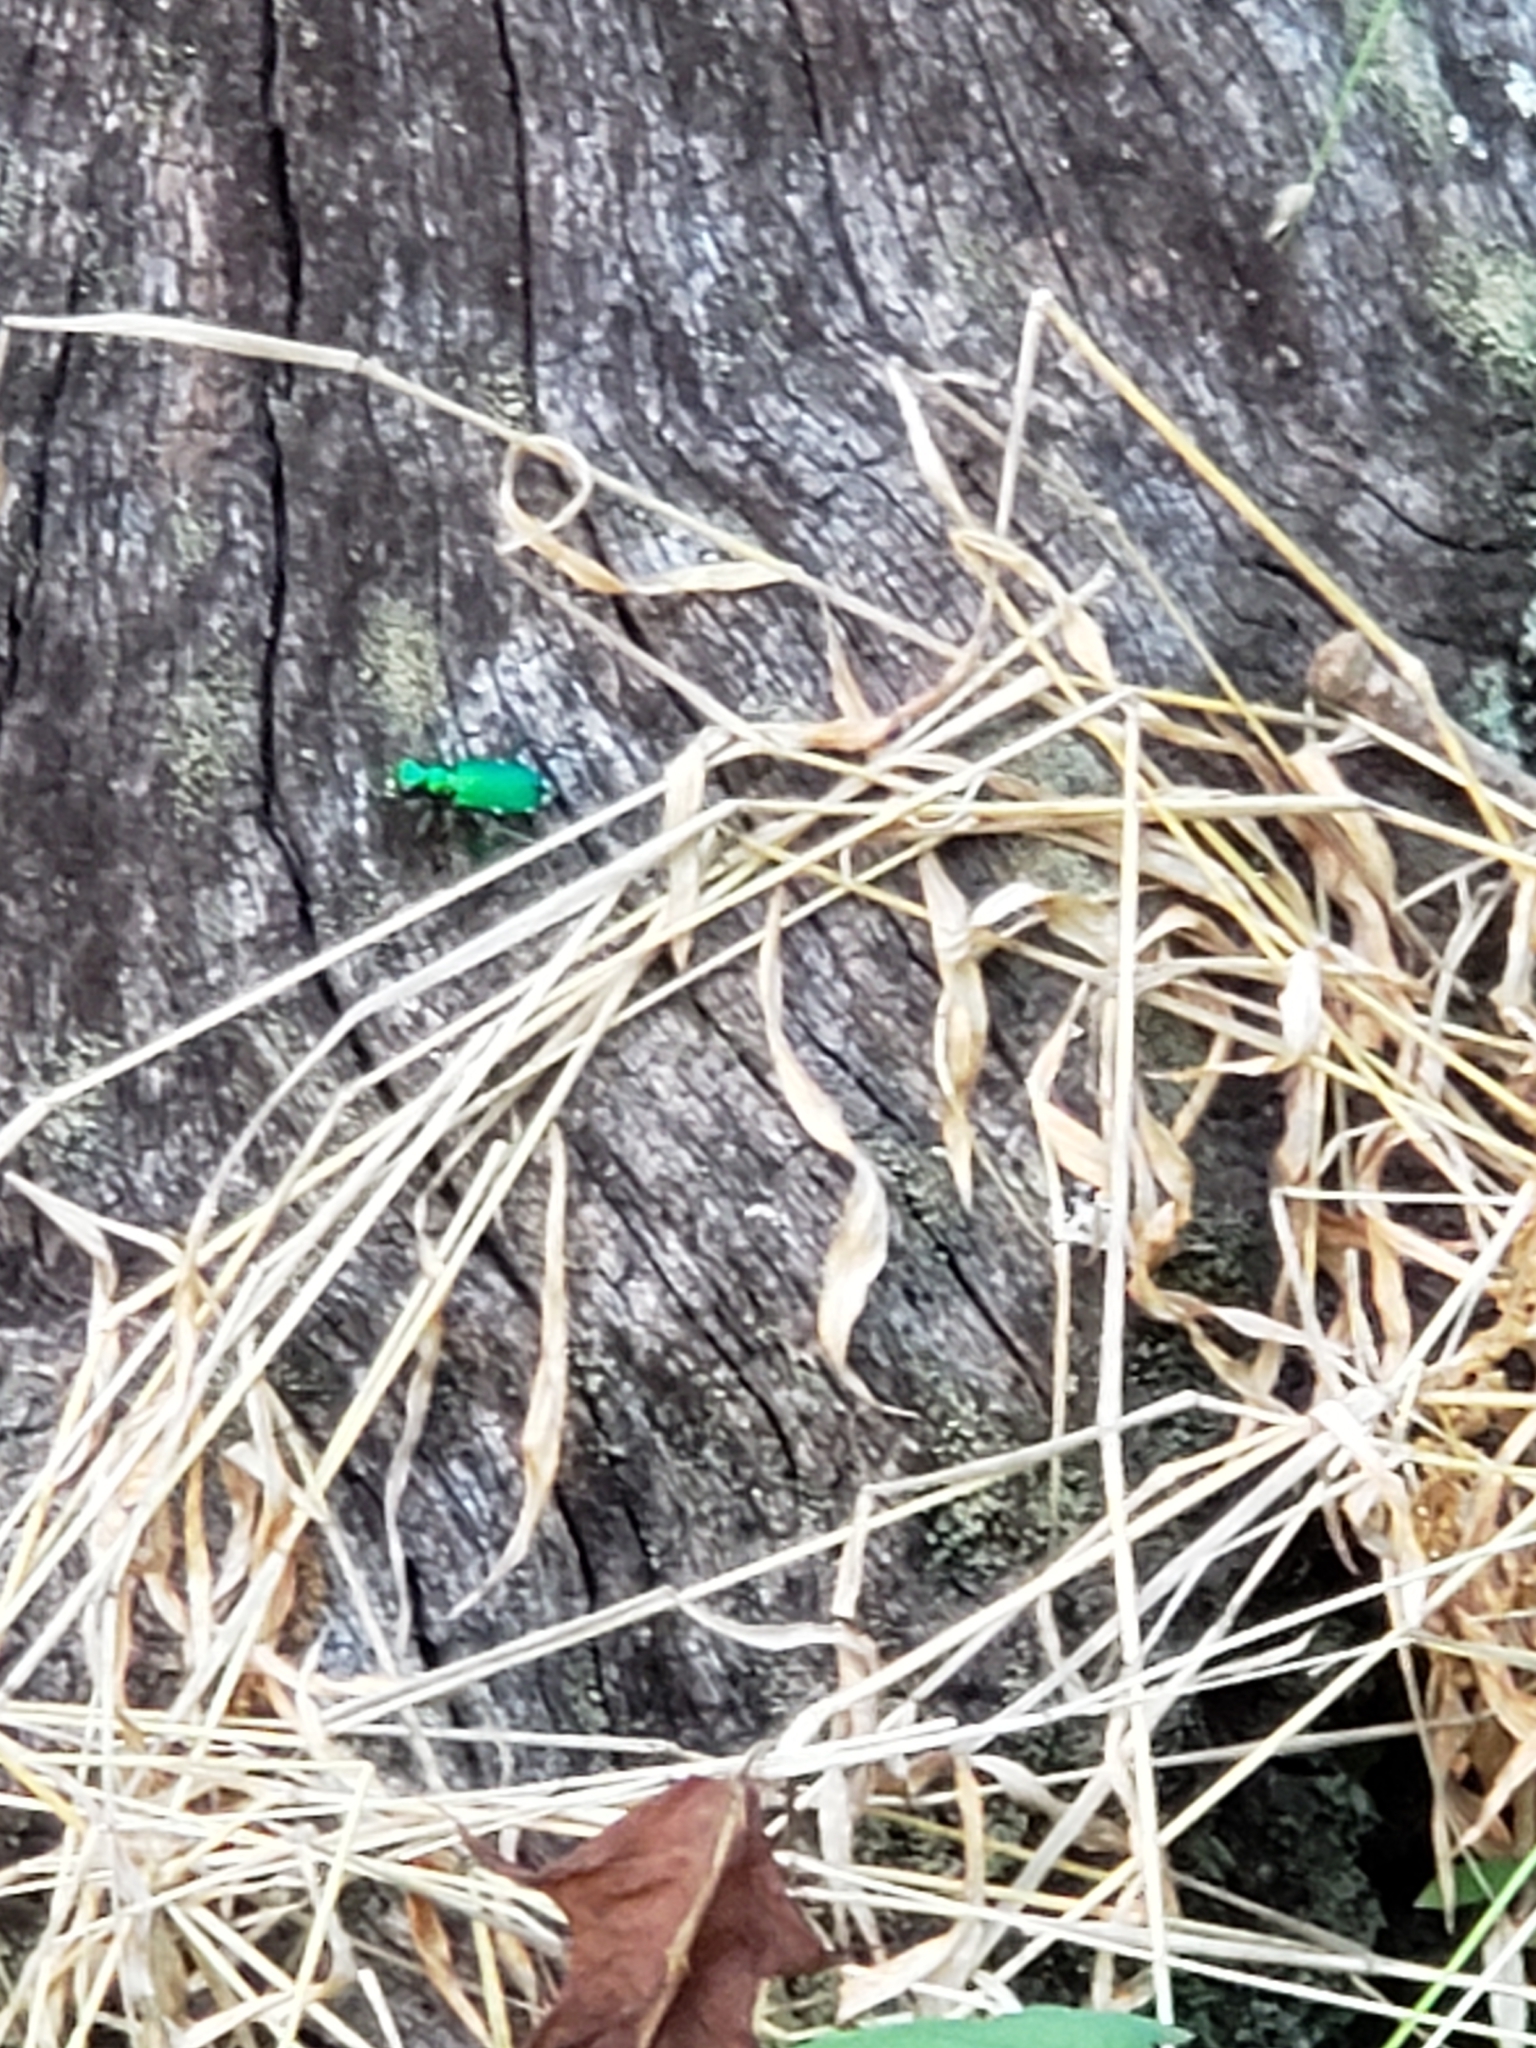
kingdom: Animalia
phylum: Arthropoda
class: Insecta
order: Coleoptera
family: Carabidae
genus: Cicindela
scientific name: Cicindela sexguttata
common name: Six-spotted tiger beetle
